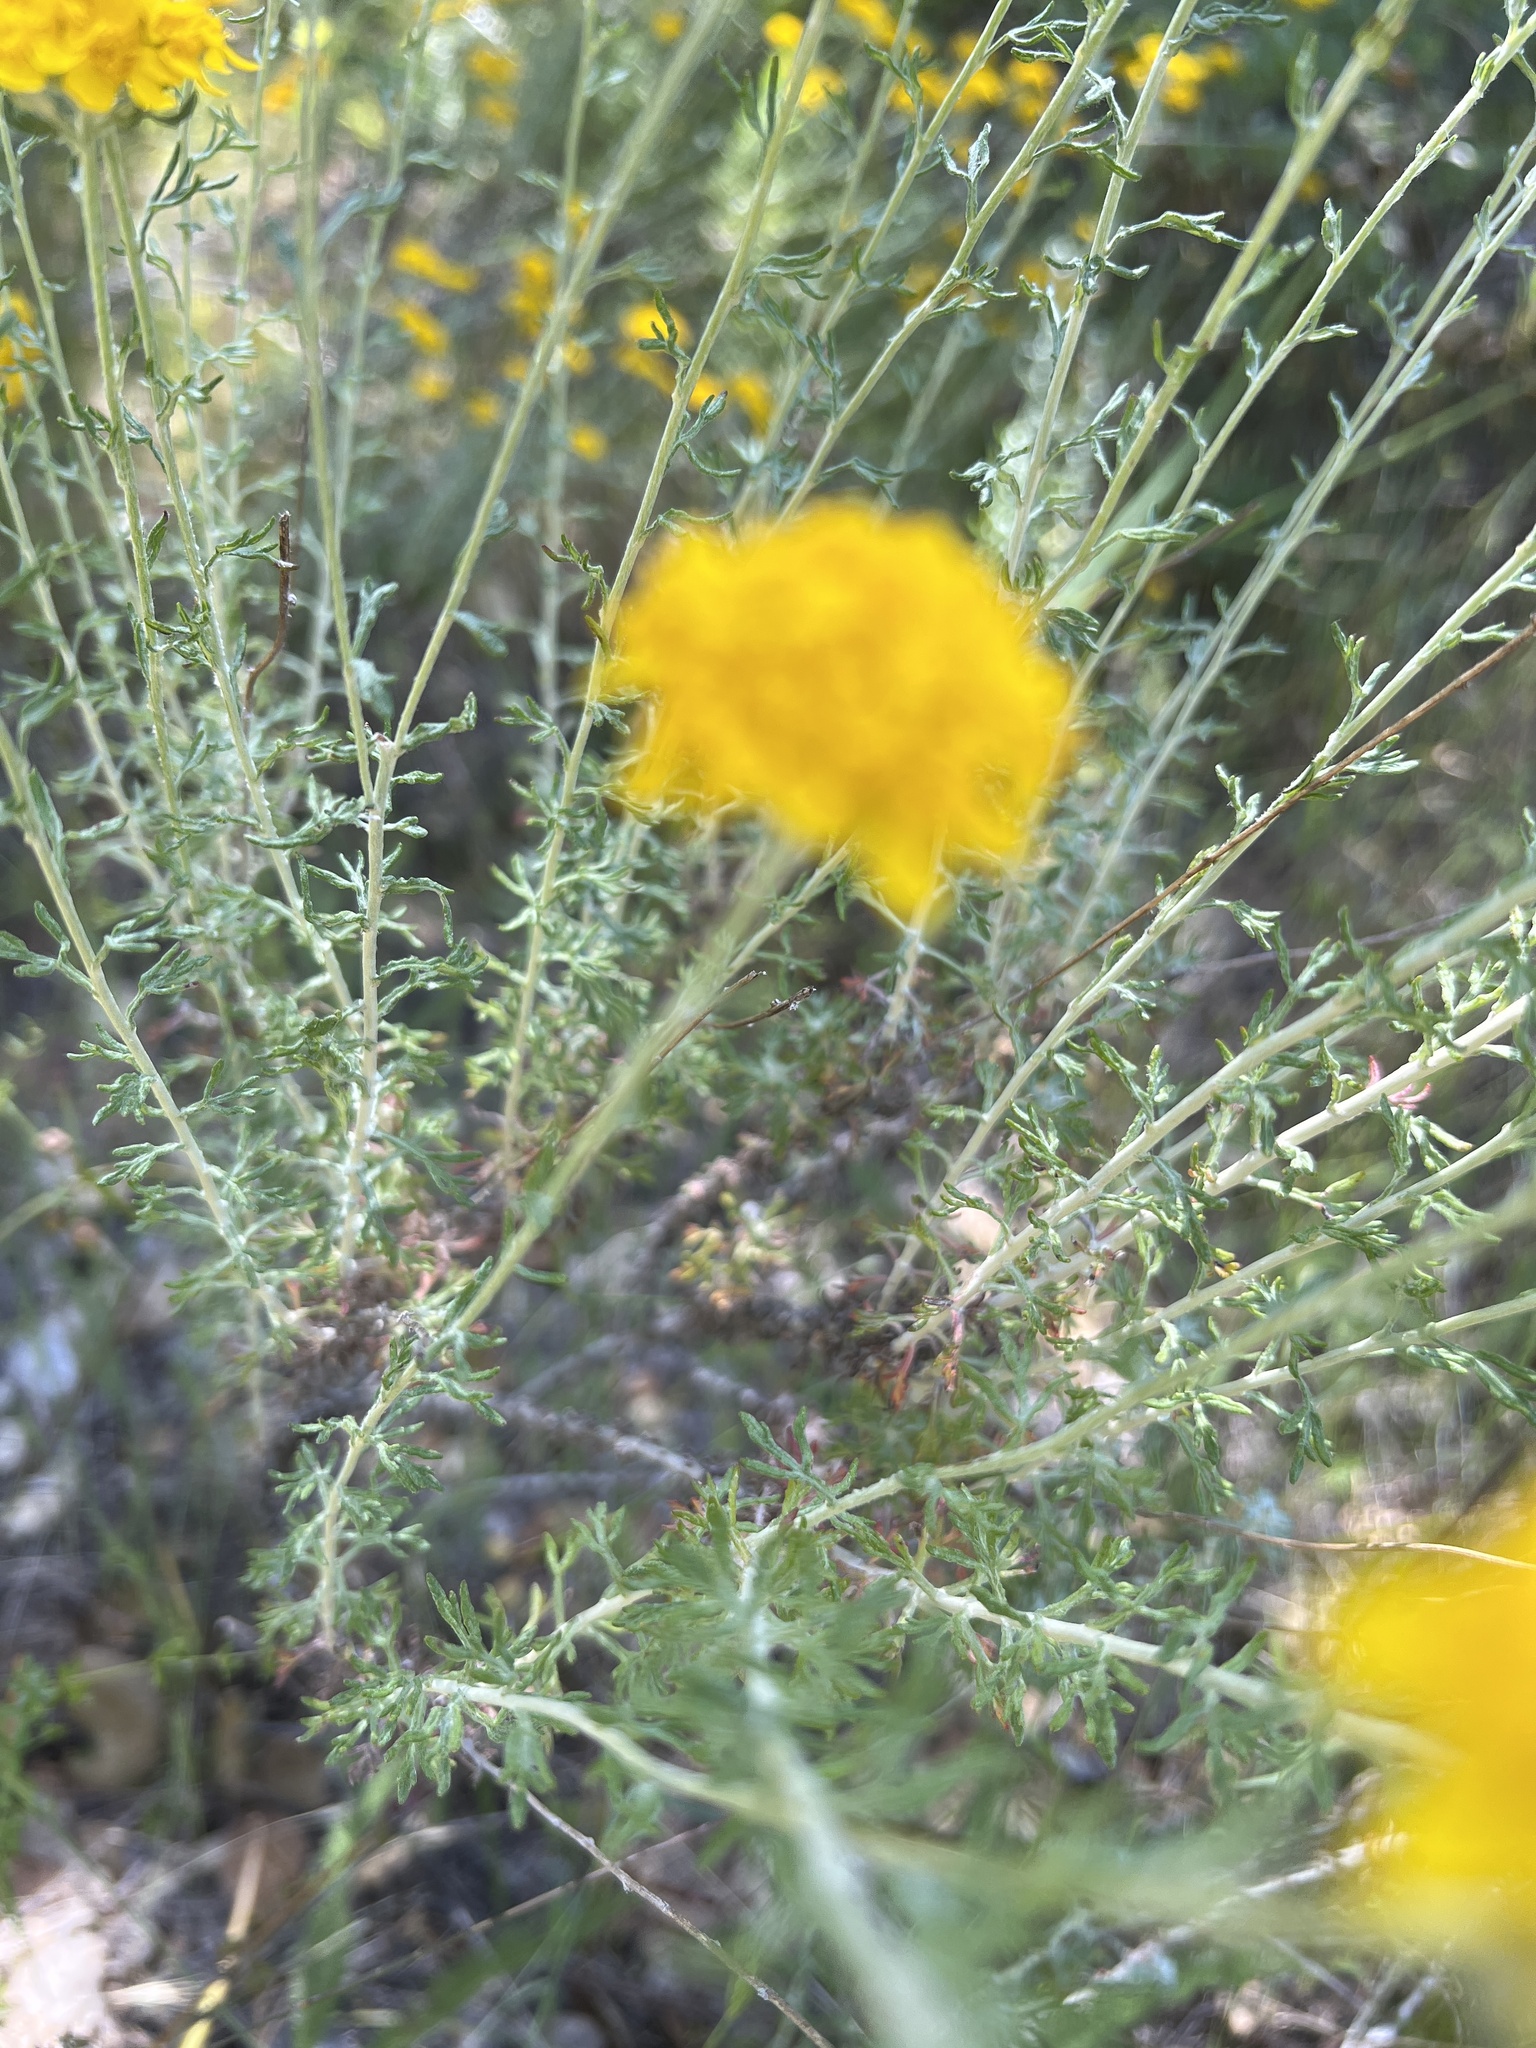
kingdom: Plantae
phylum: Tracheophyta
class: Magnoliopsida
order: Asterales
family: Asteraceae
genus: Eriophyllum
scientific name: Eriophyllum confertiflorum
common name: Golden-yarrow
